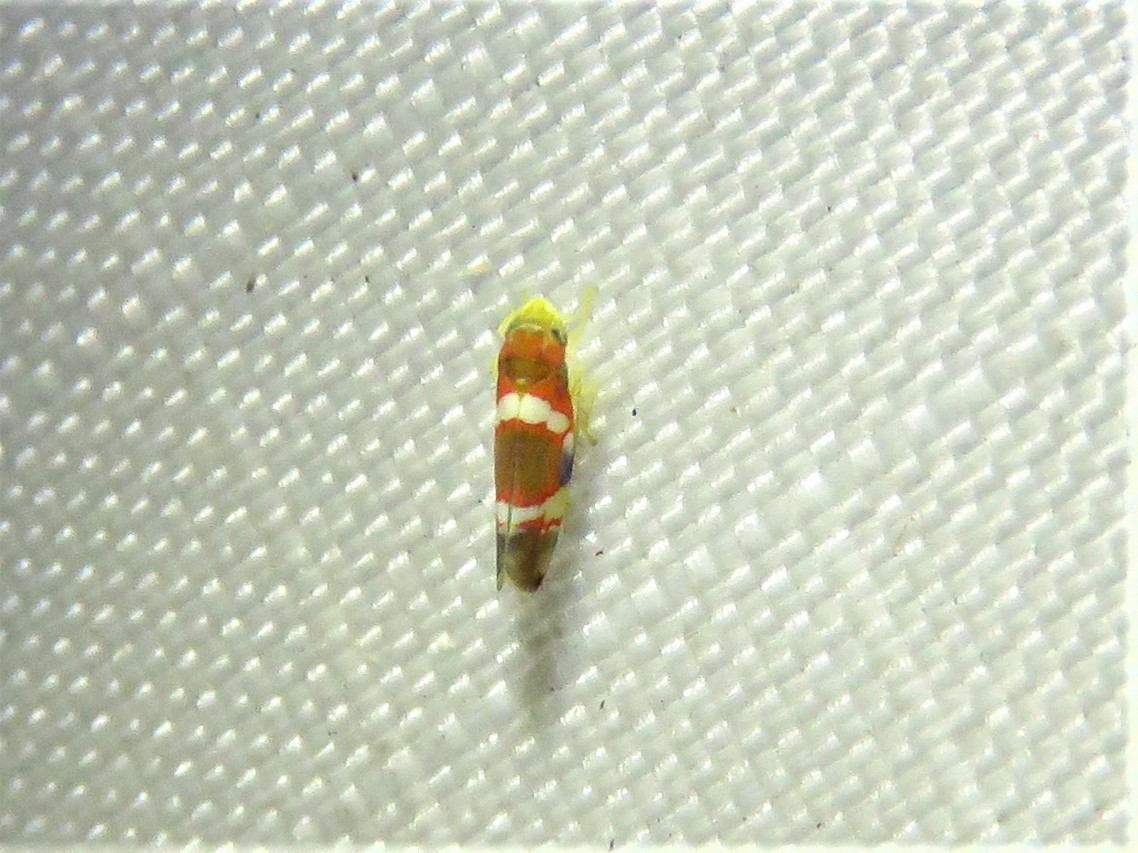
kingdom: Animalia
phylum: Arthropoda
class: Insecta
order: Hemiptera
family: Cicadellidae
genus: Erythroneura
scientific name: Erythroneura vitis
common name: Grapevine leafhopper
